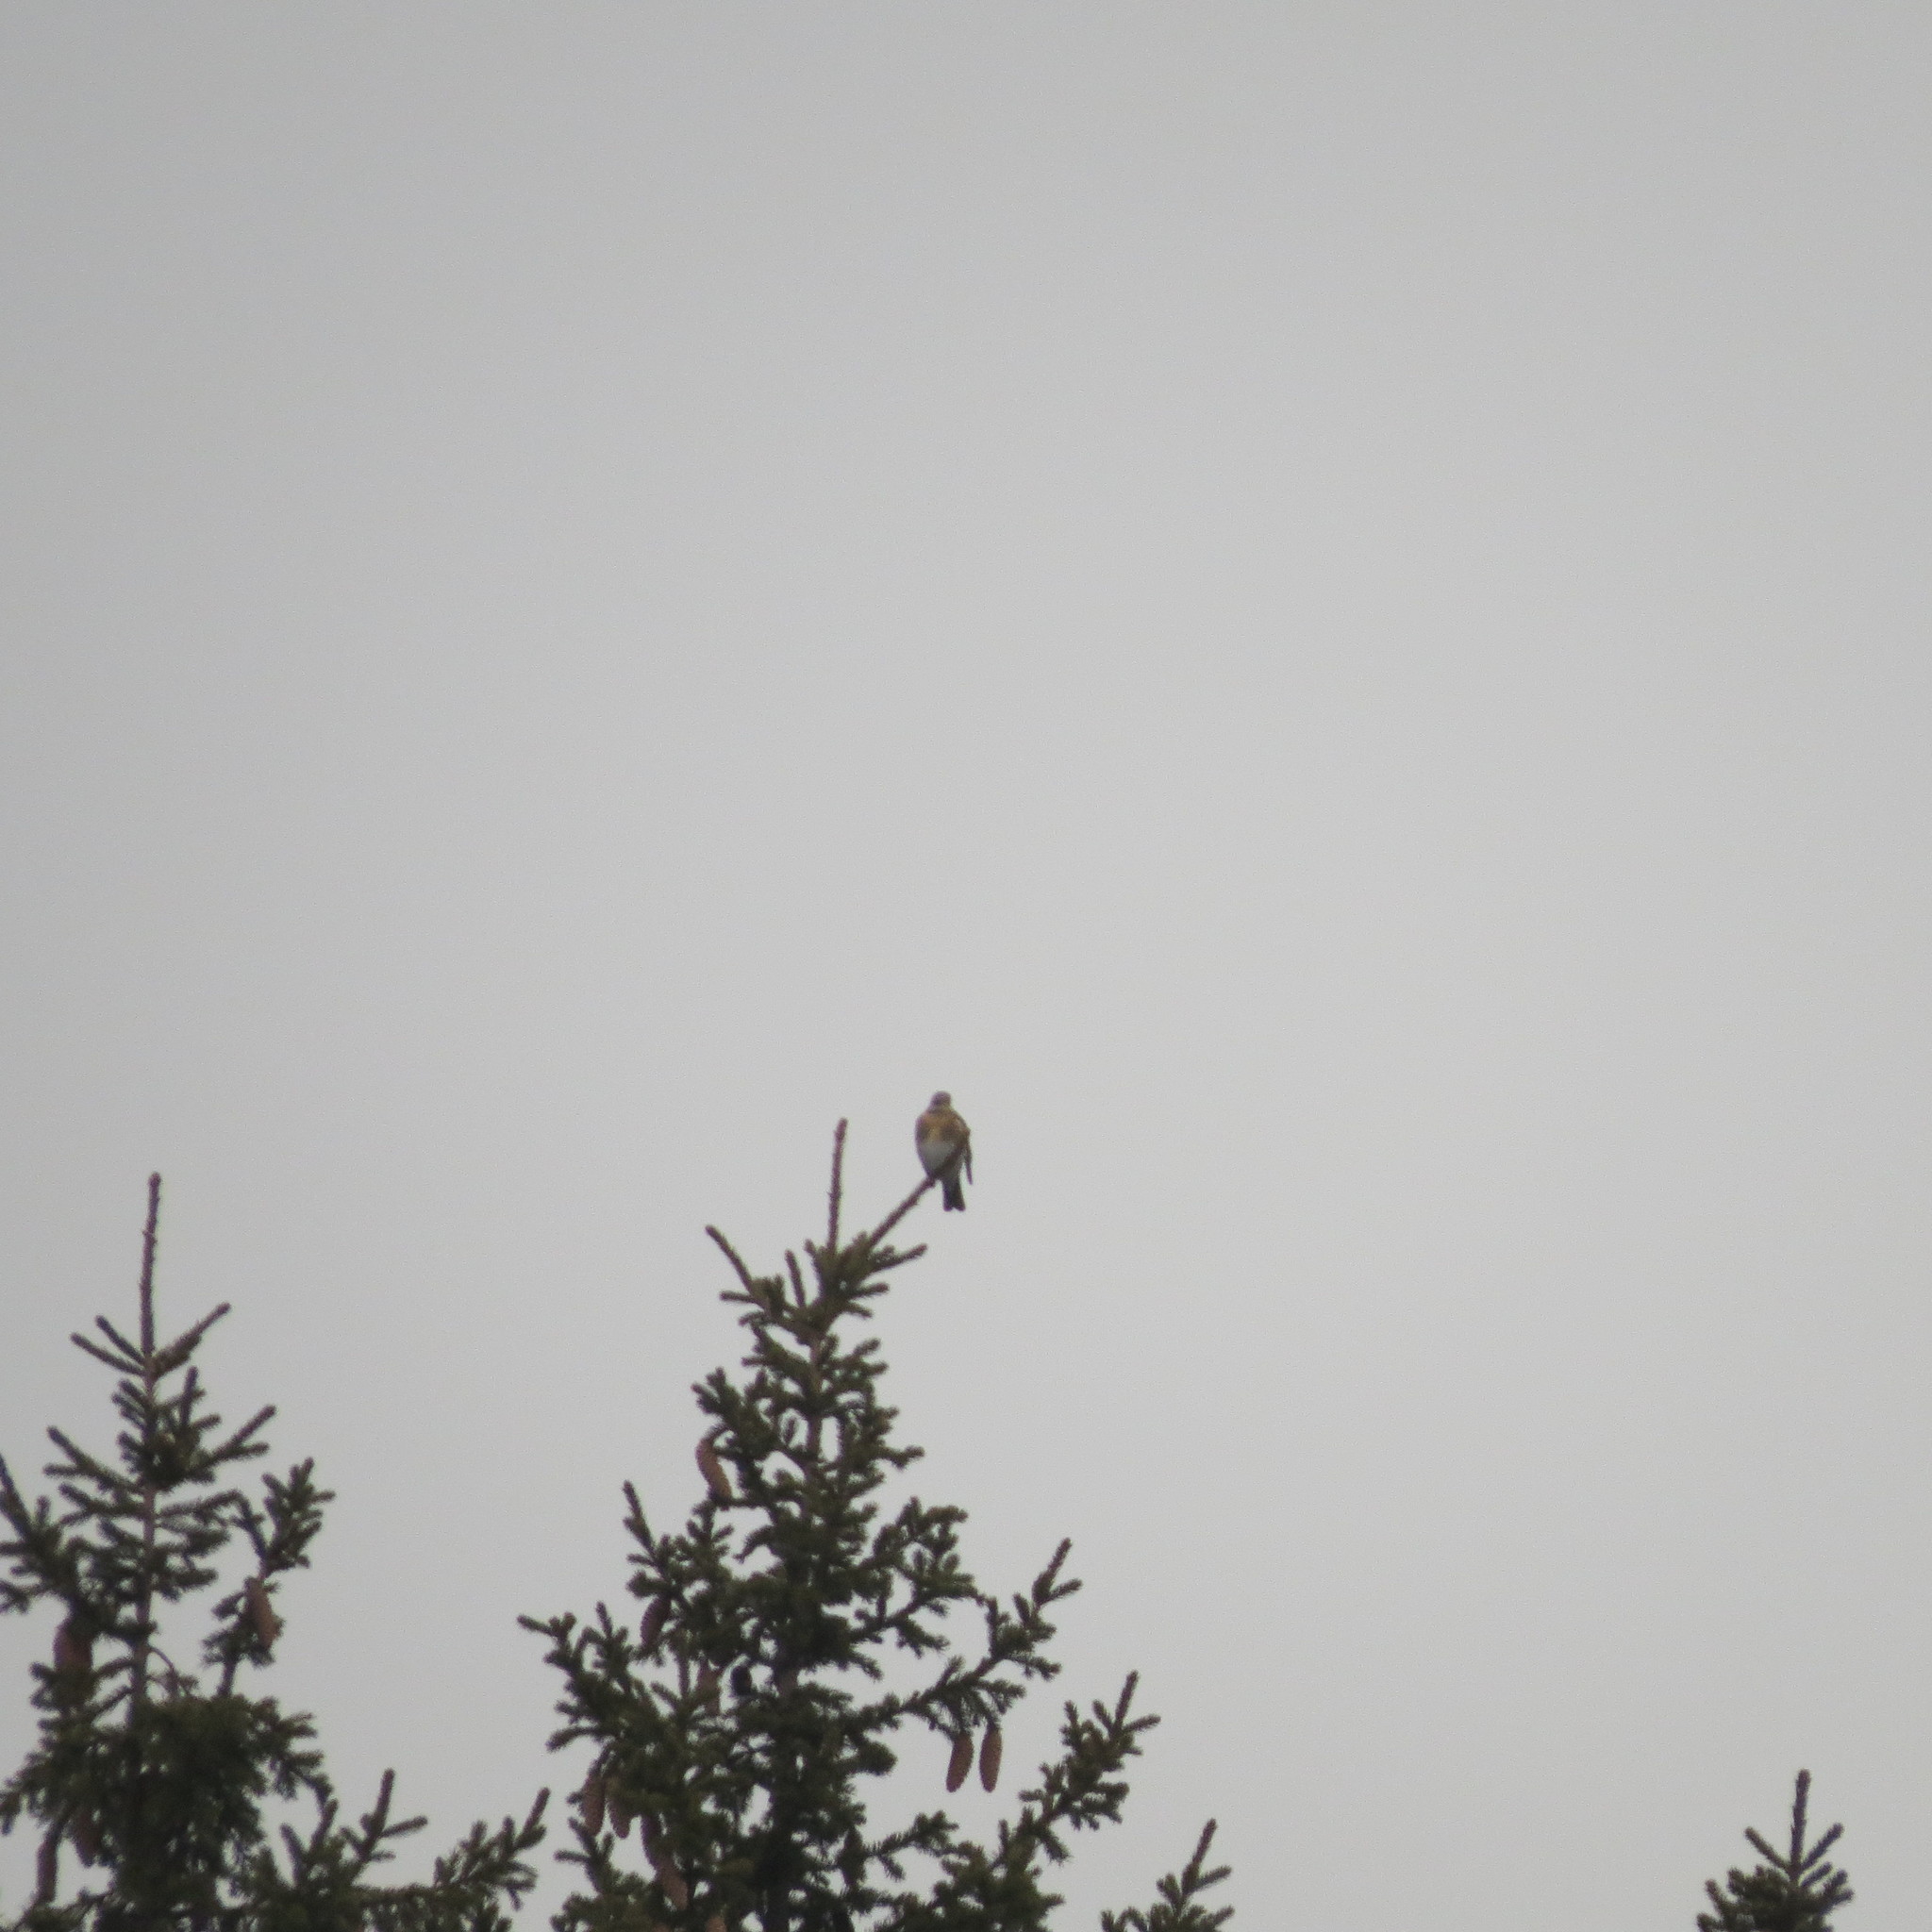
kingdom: Animalia
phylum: Chordata
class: Aves
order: Passeriformes
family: Turdidae
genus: Turdus
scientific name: Turdus pilaris
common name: Fieldfare
